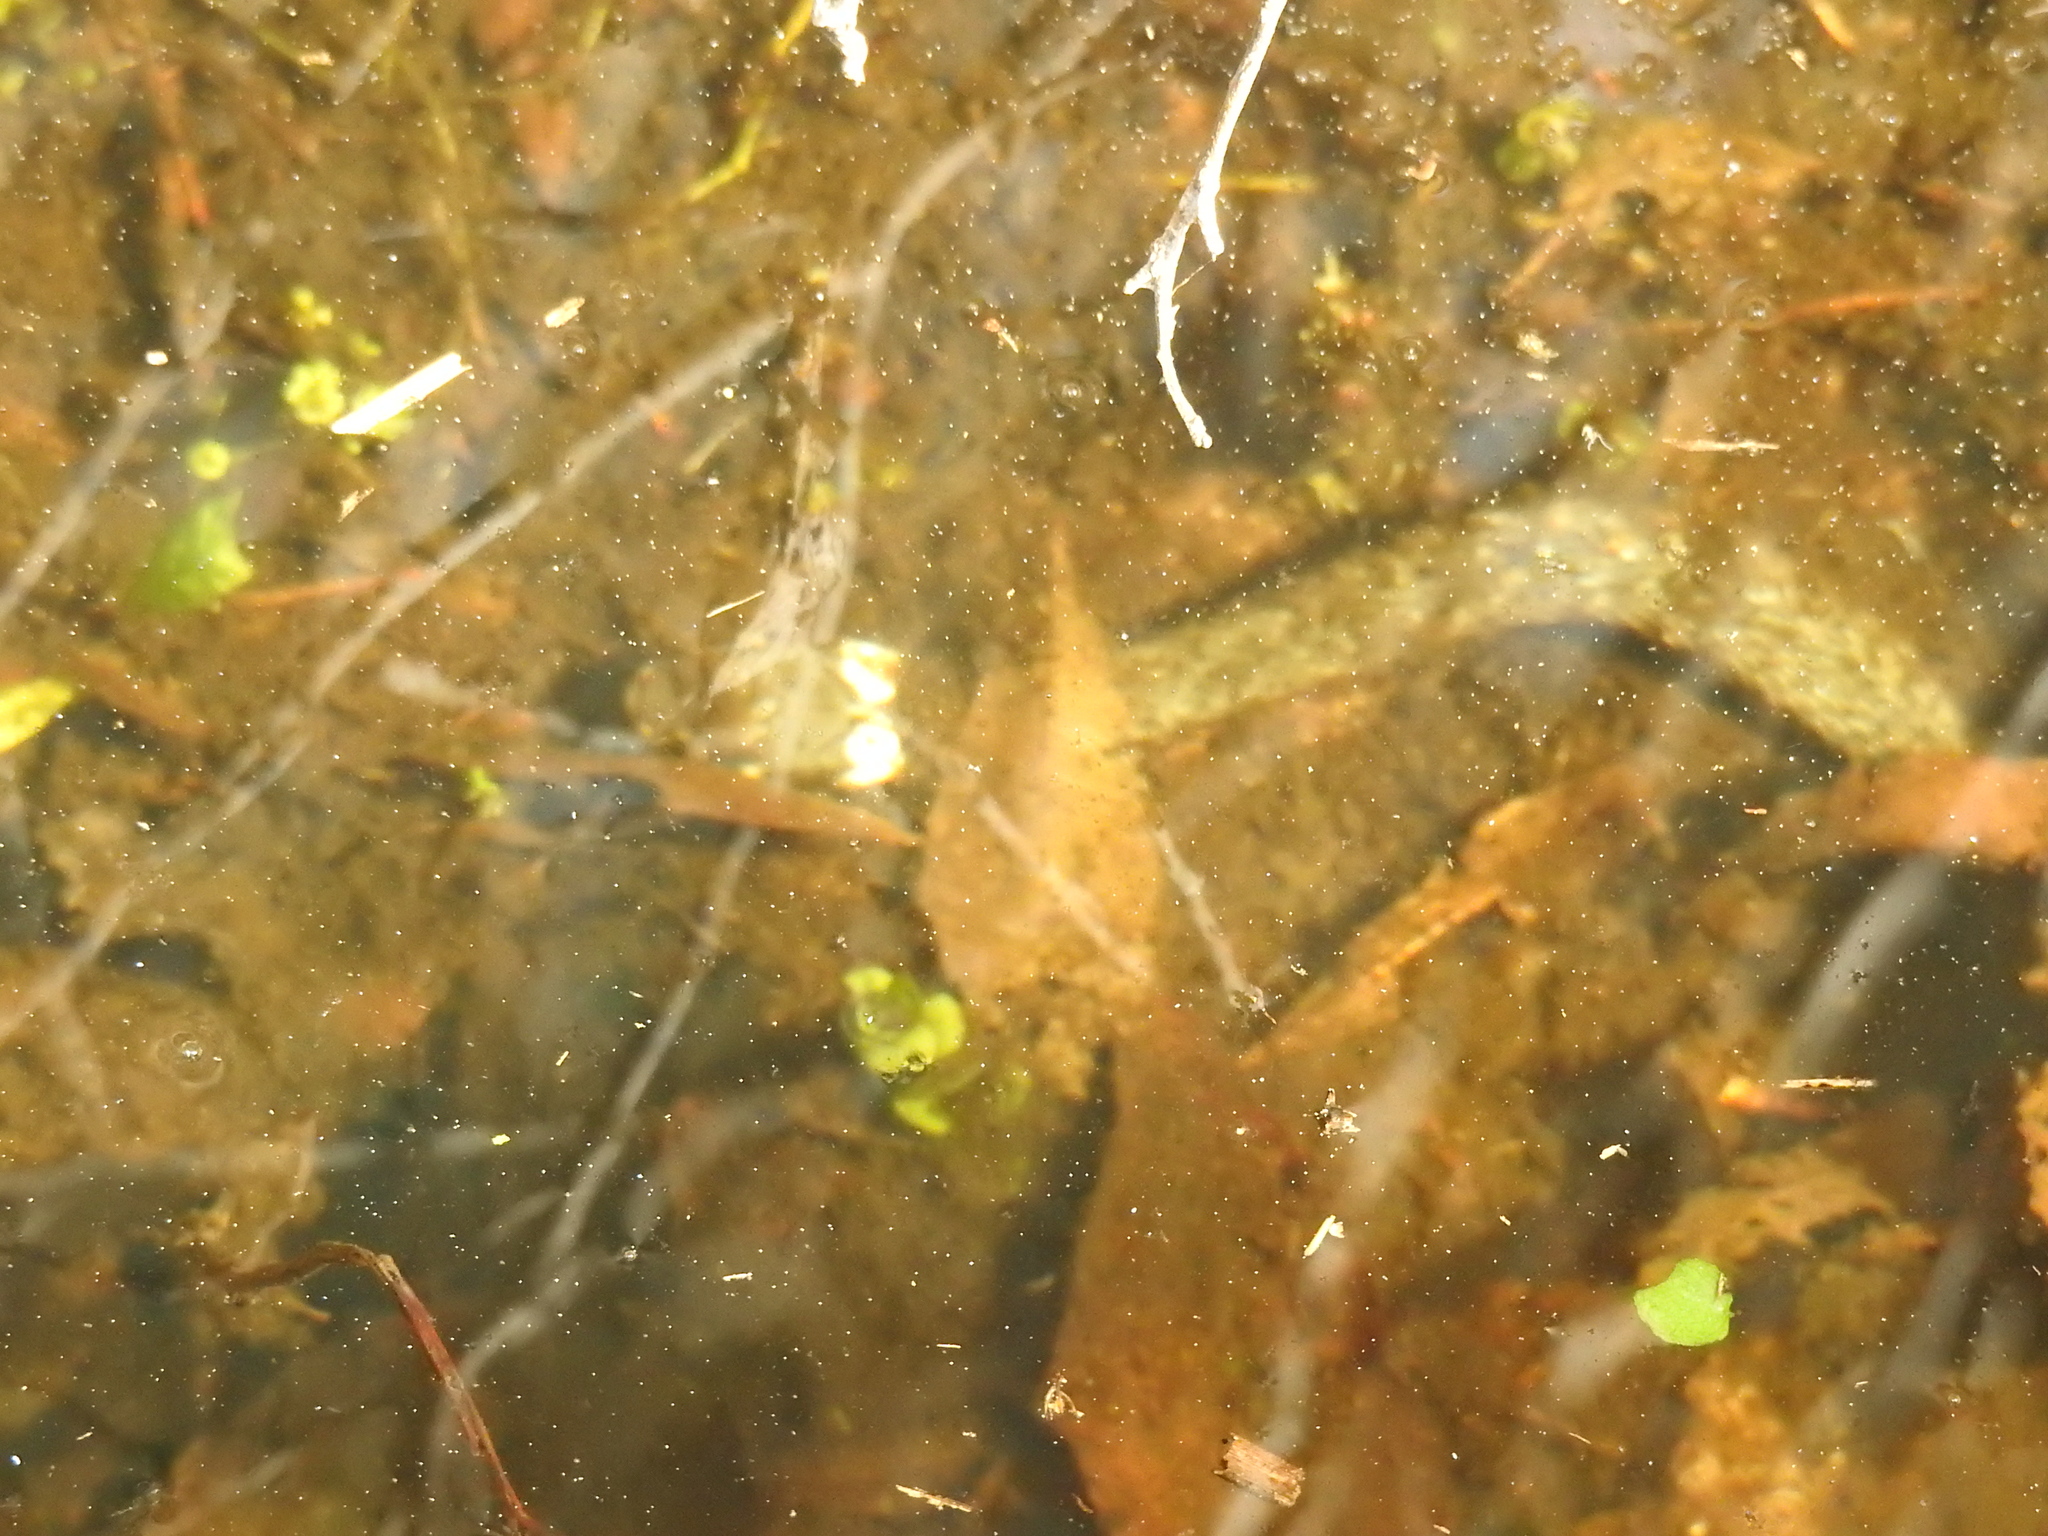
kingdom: Animalia
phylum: Chordata
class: Squamata
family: Colubridae
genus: Natrix
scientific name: Natrix natrix
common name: Grass snake
